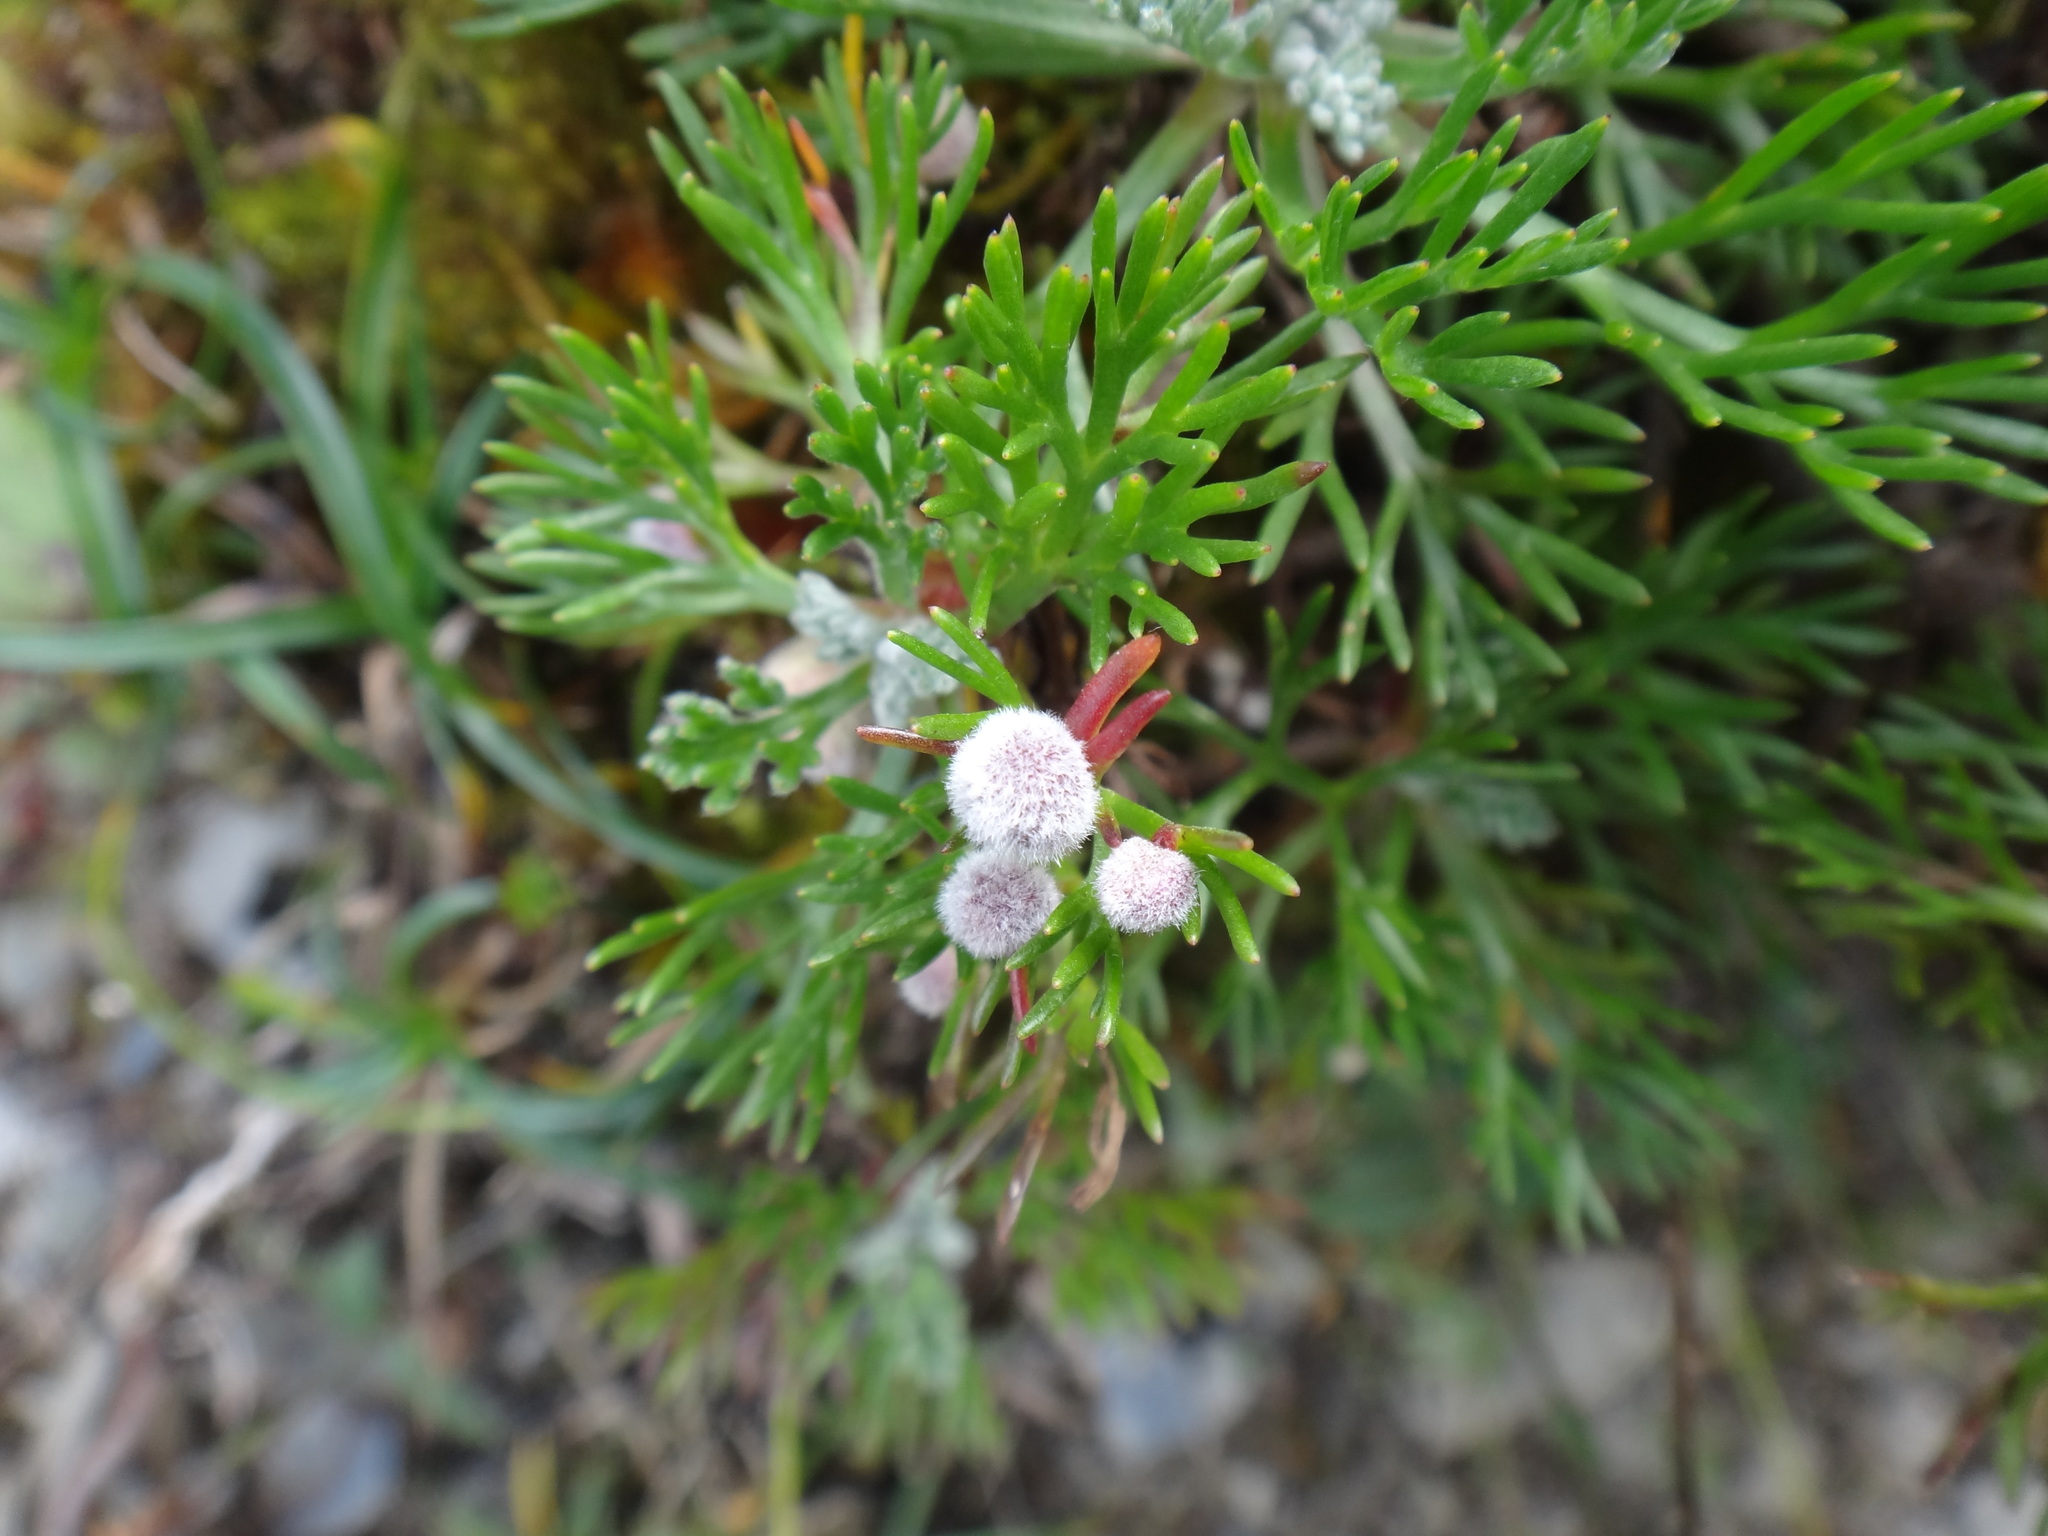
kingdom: Plantae
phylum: Tracheophyta
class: Magnoliopsida
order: Asterales
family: Asteraceae
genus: Artemisia
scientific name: Artemisia morrisonensis
